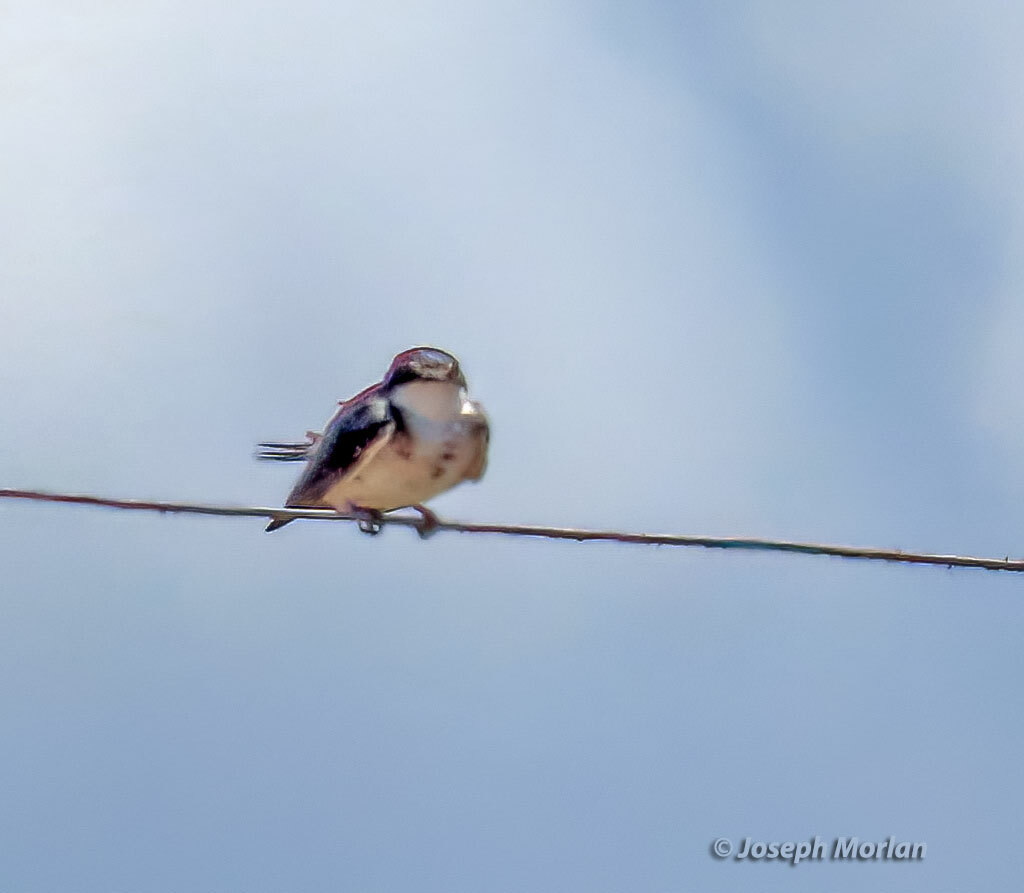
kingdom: Animalia
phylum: Chordata
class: Aves
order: Passeriformes
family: Hirundinidae
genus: Tachycineta
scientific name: Tachycineta leucorrhoa
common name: White-rumped swallow
